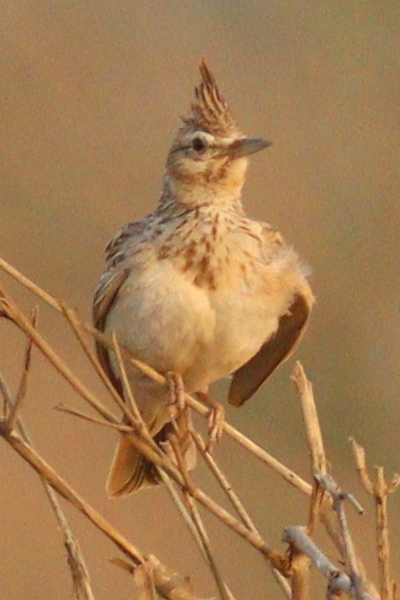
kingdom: Animalia
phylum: Chordata
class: Aves
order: Passeriformes
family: Alaudidae
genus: Galerida
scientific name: Galerida cristata
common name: Crested lark
